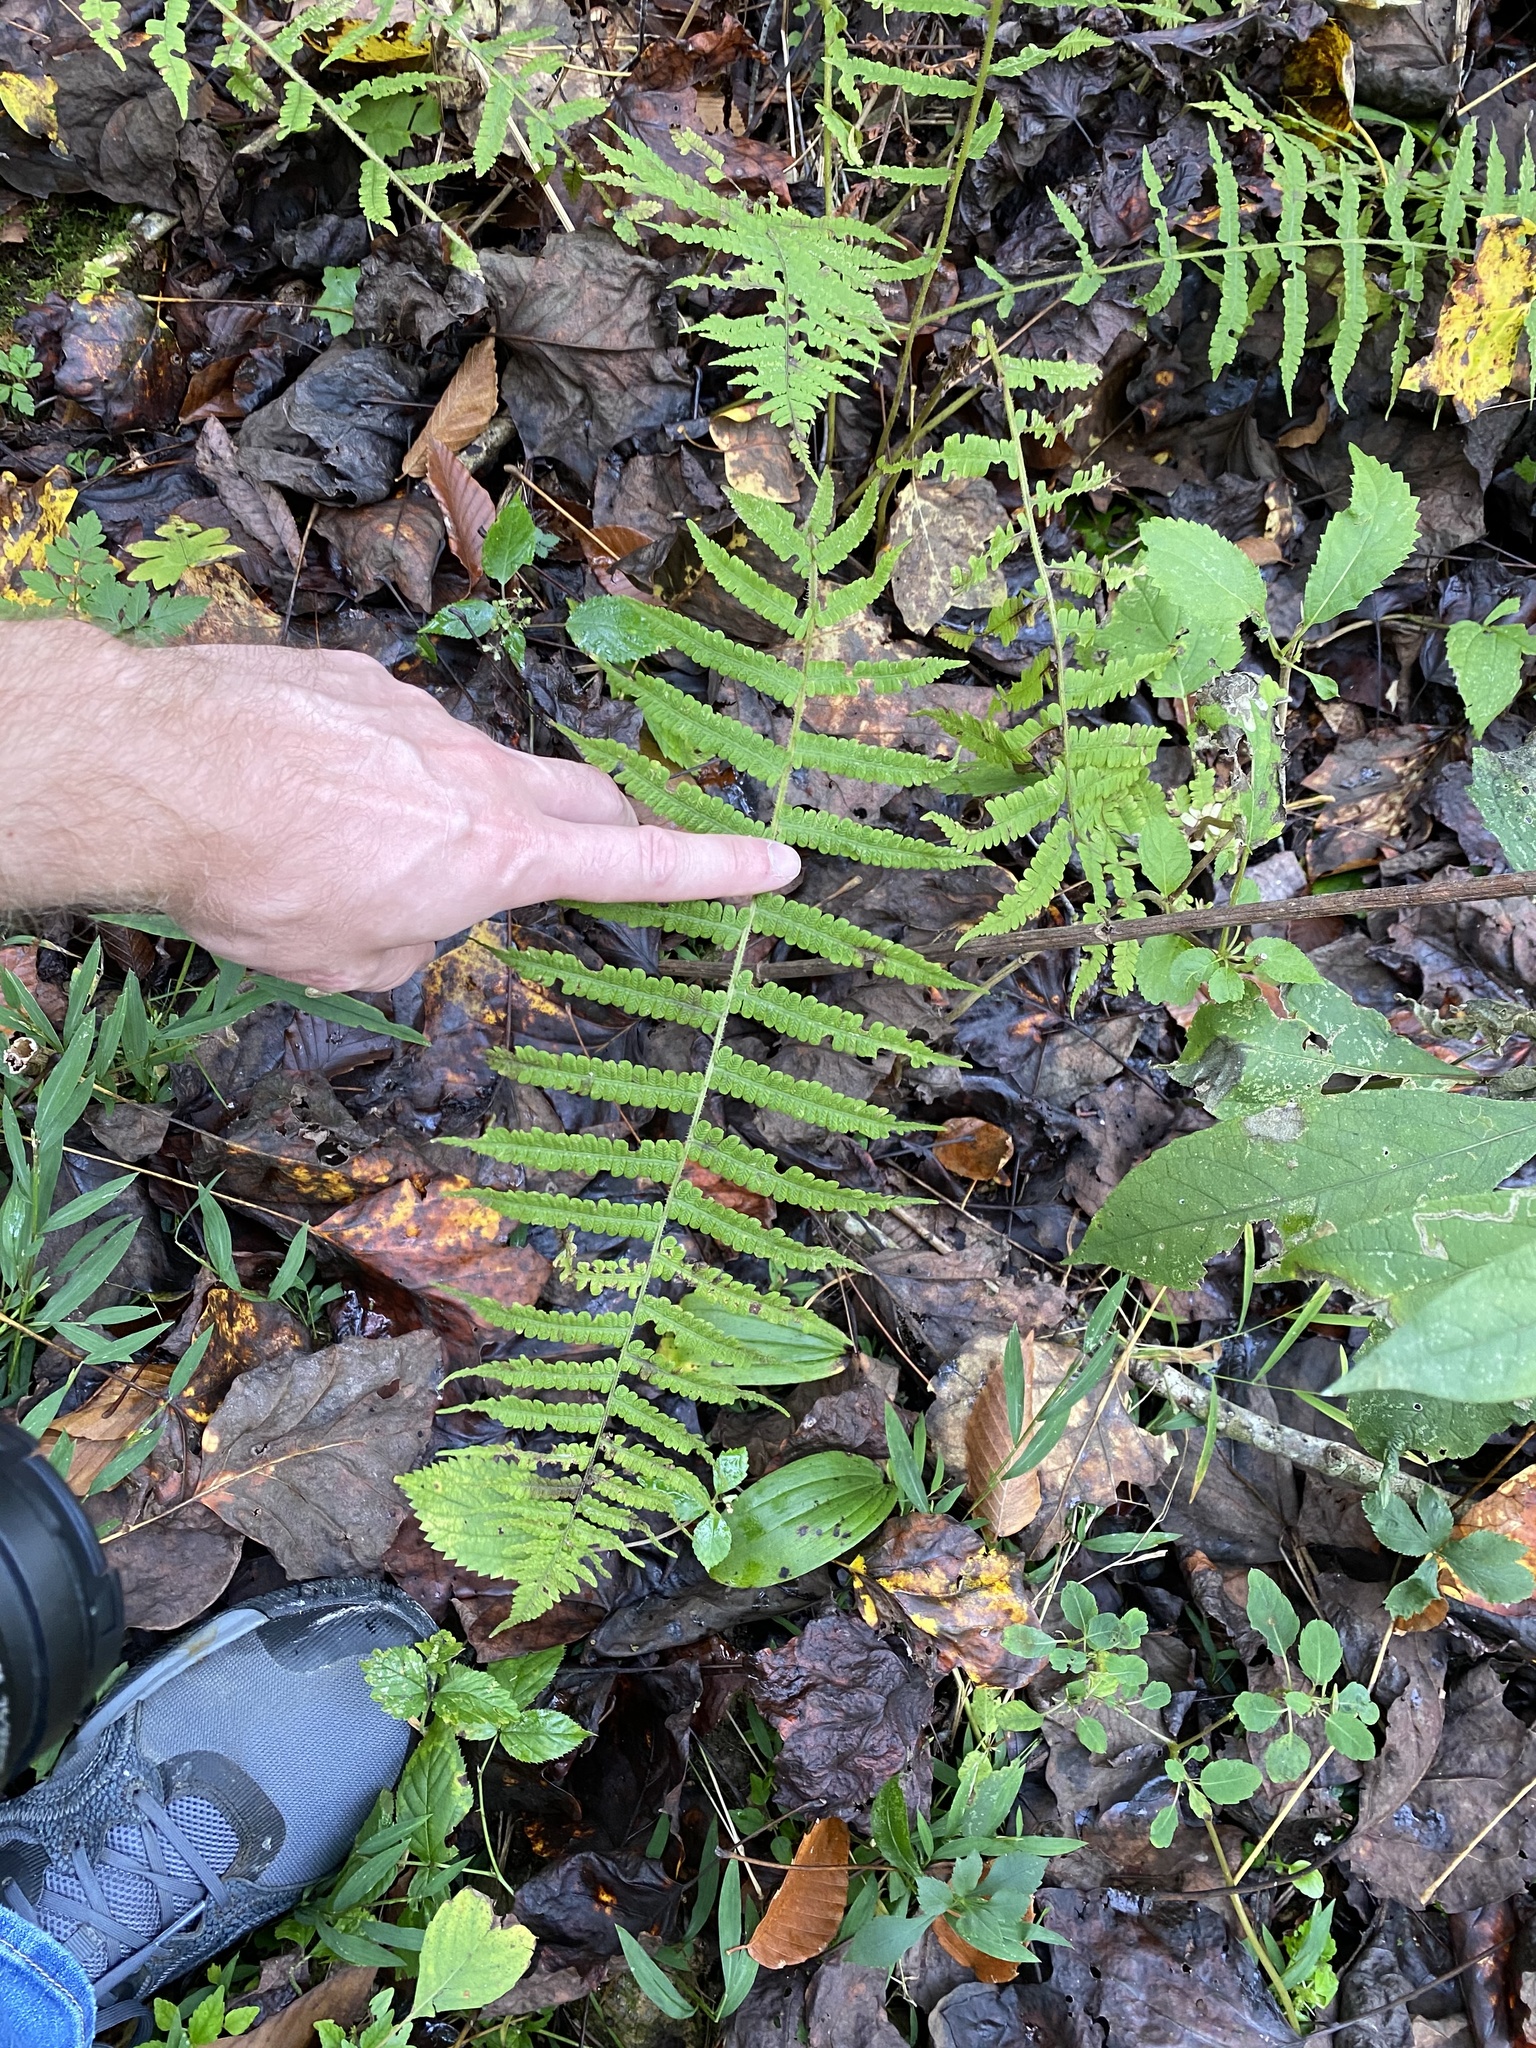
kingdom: Plantae
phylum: Tracheophyta
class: Polypodiopsida
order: Polypodiales
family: Athyriaceae
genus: Deparia
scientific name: Deparia acrostichoides
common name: Silver false spleenwort
